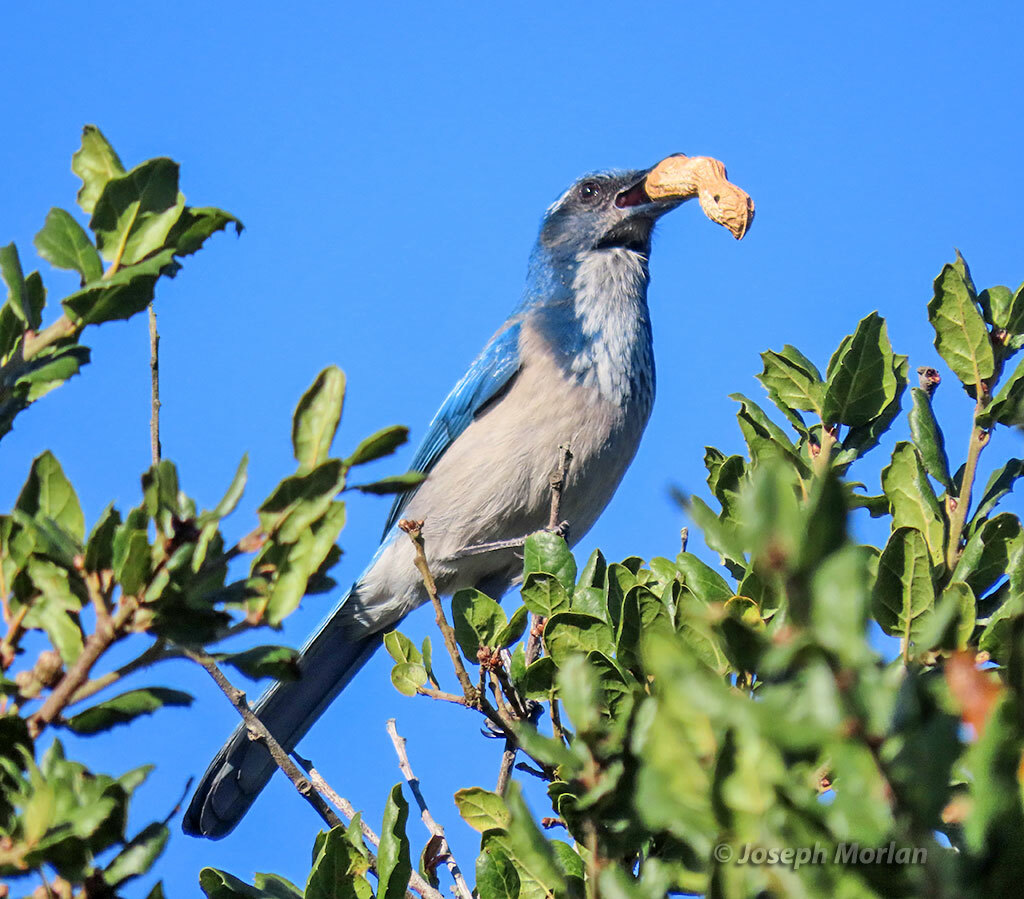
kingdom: Animalia
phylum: Chordata
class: Aves
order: Passeriformes
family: Corvidae
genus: Aphelocoma
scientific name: Aphelocoma californica
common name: California scrub-jay
